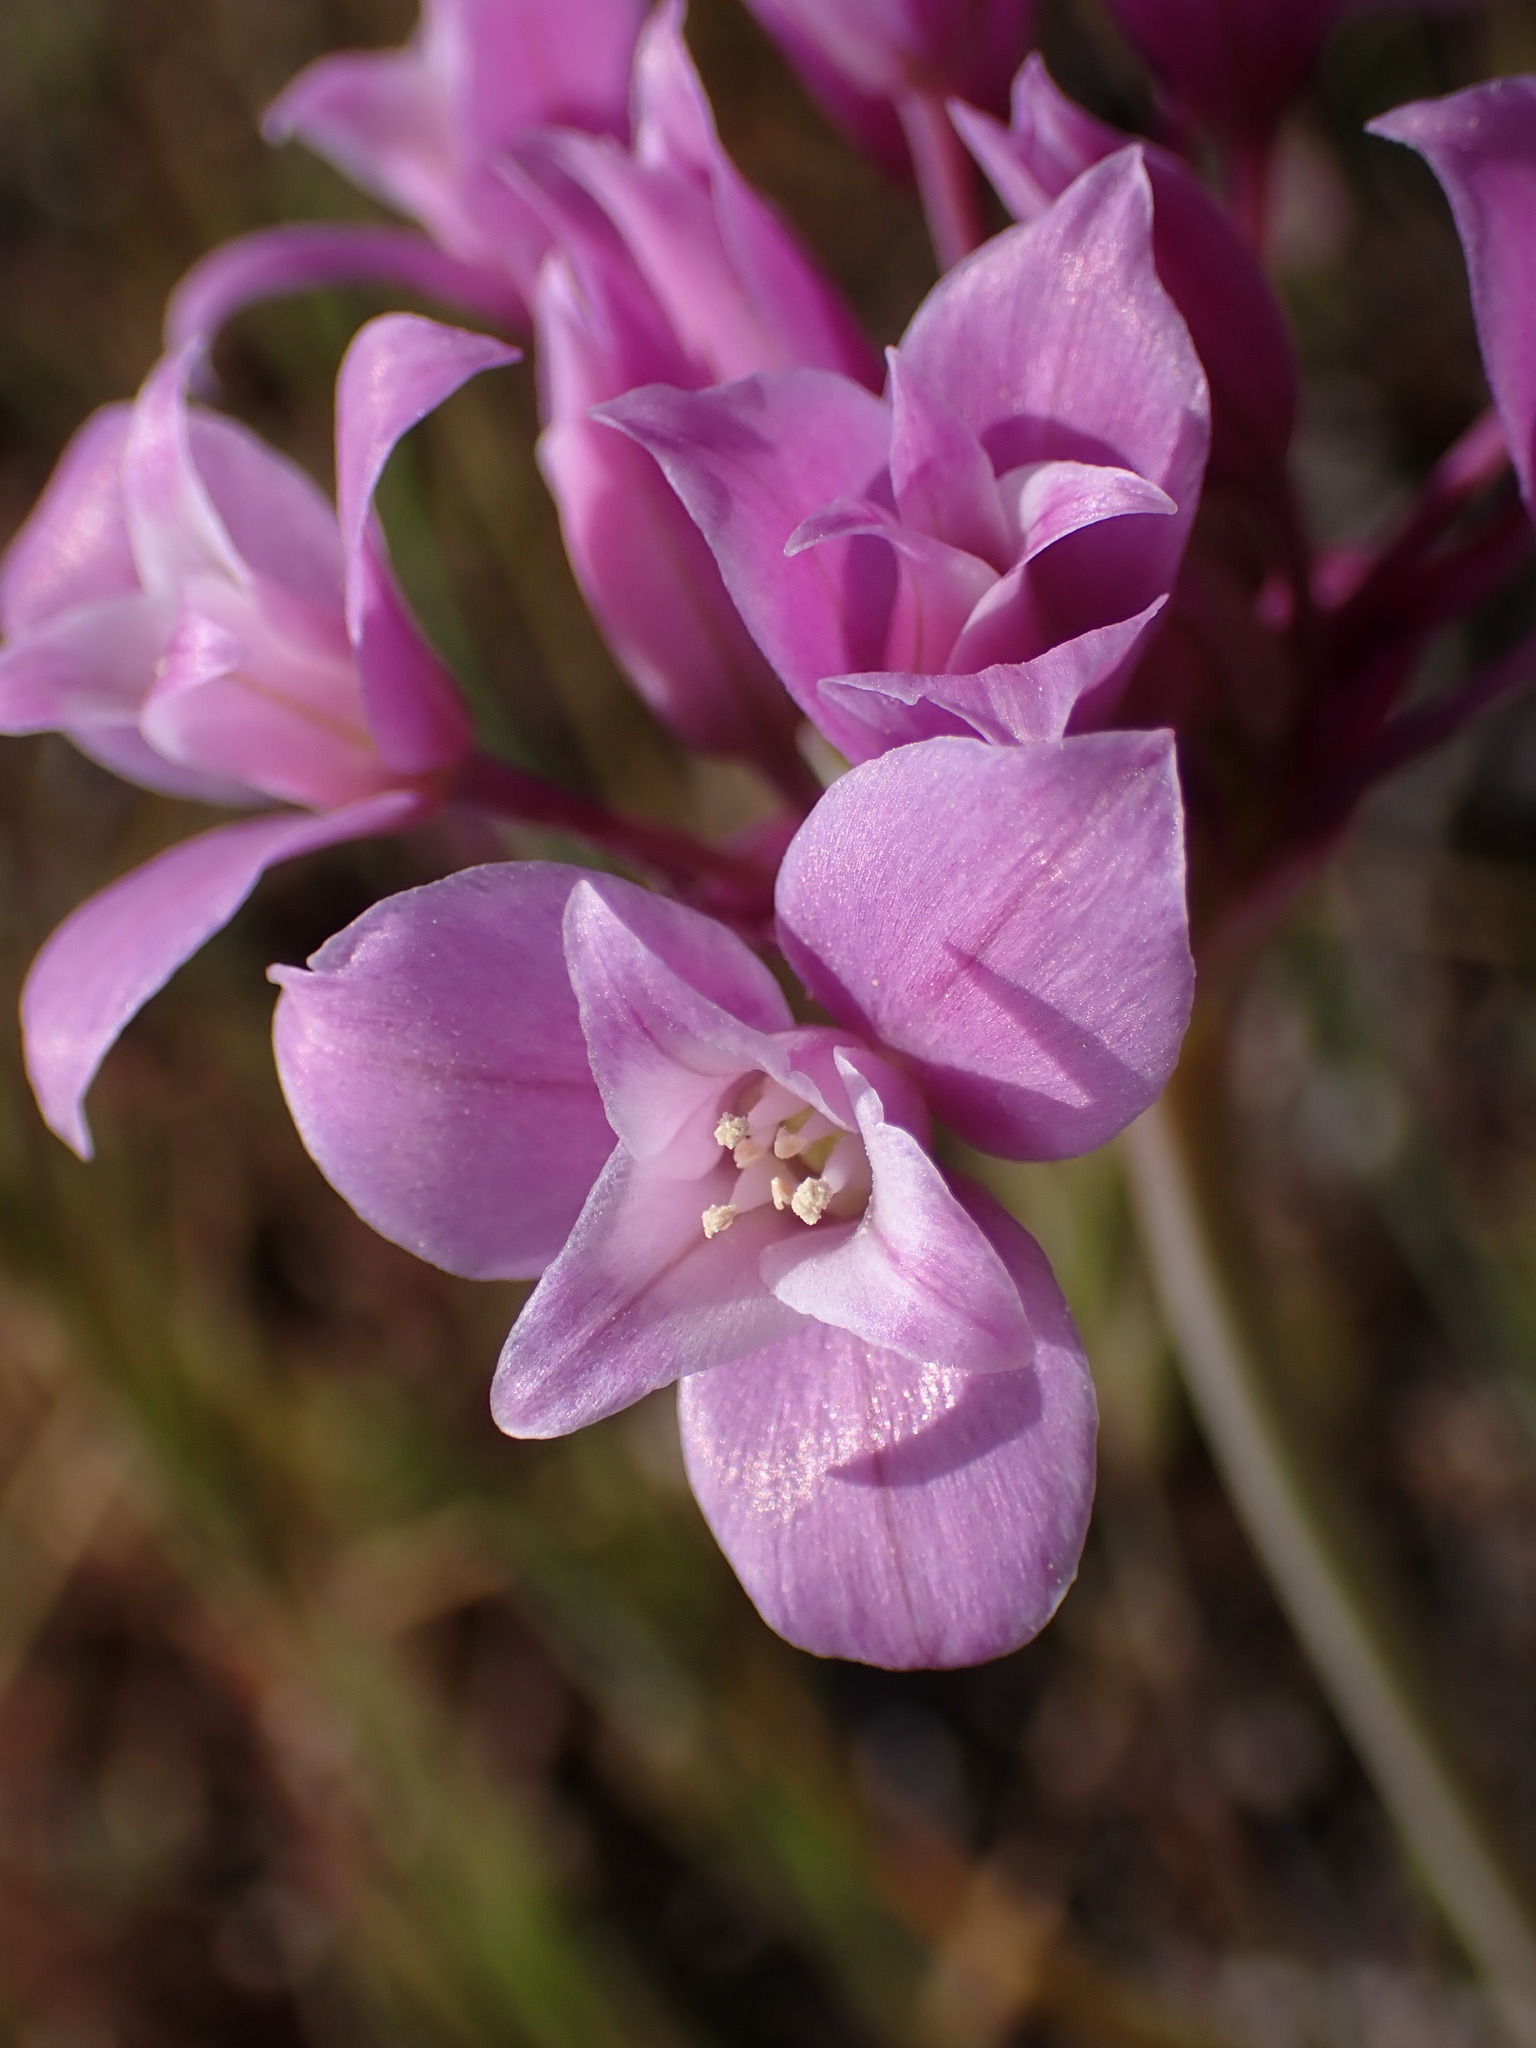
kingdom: Plantae
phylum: Tracheophyta
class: Liliopsida
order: Asparagales
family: Amaryllidaceae
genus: Allium
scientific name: Allium peninsulare
